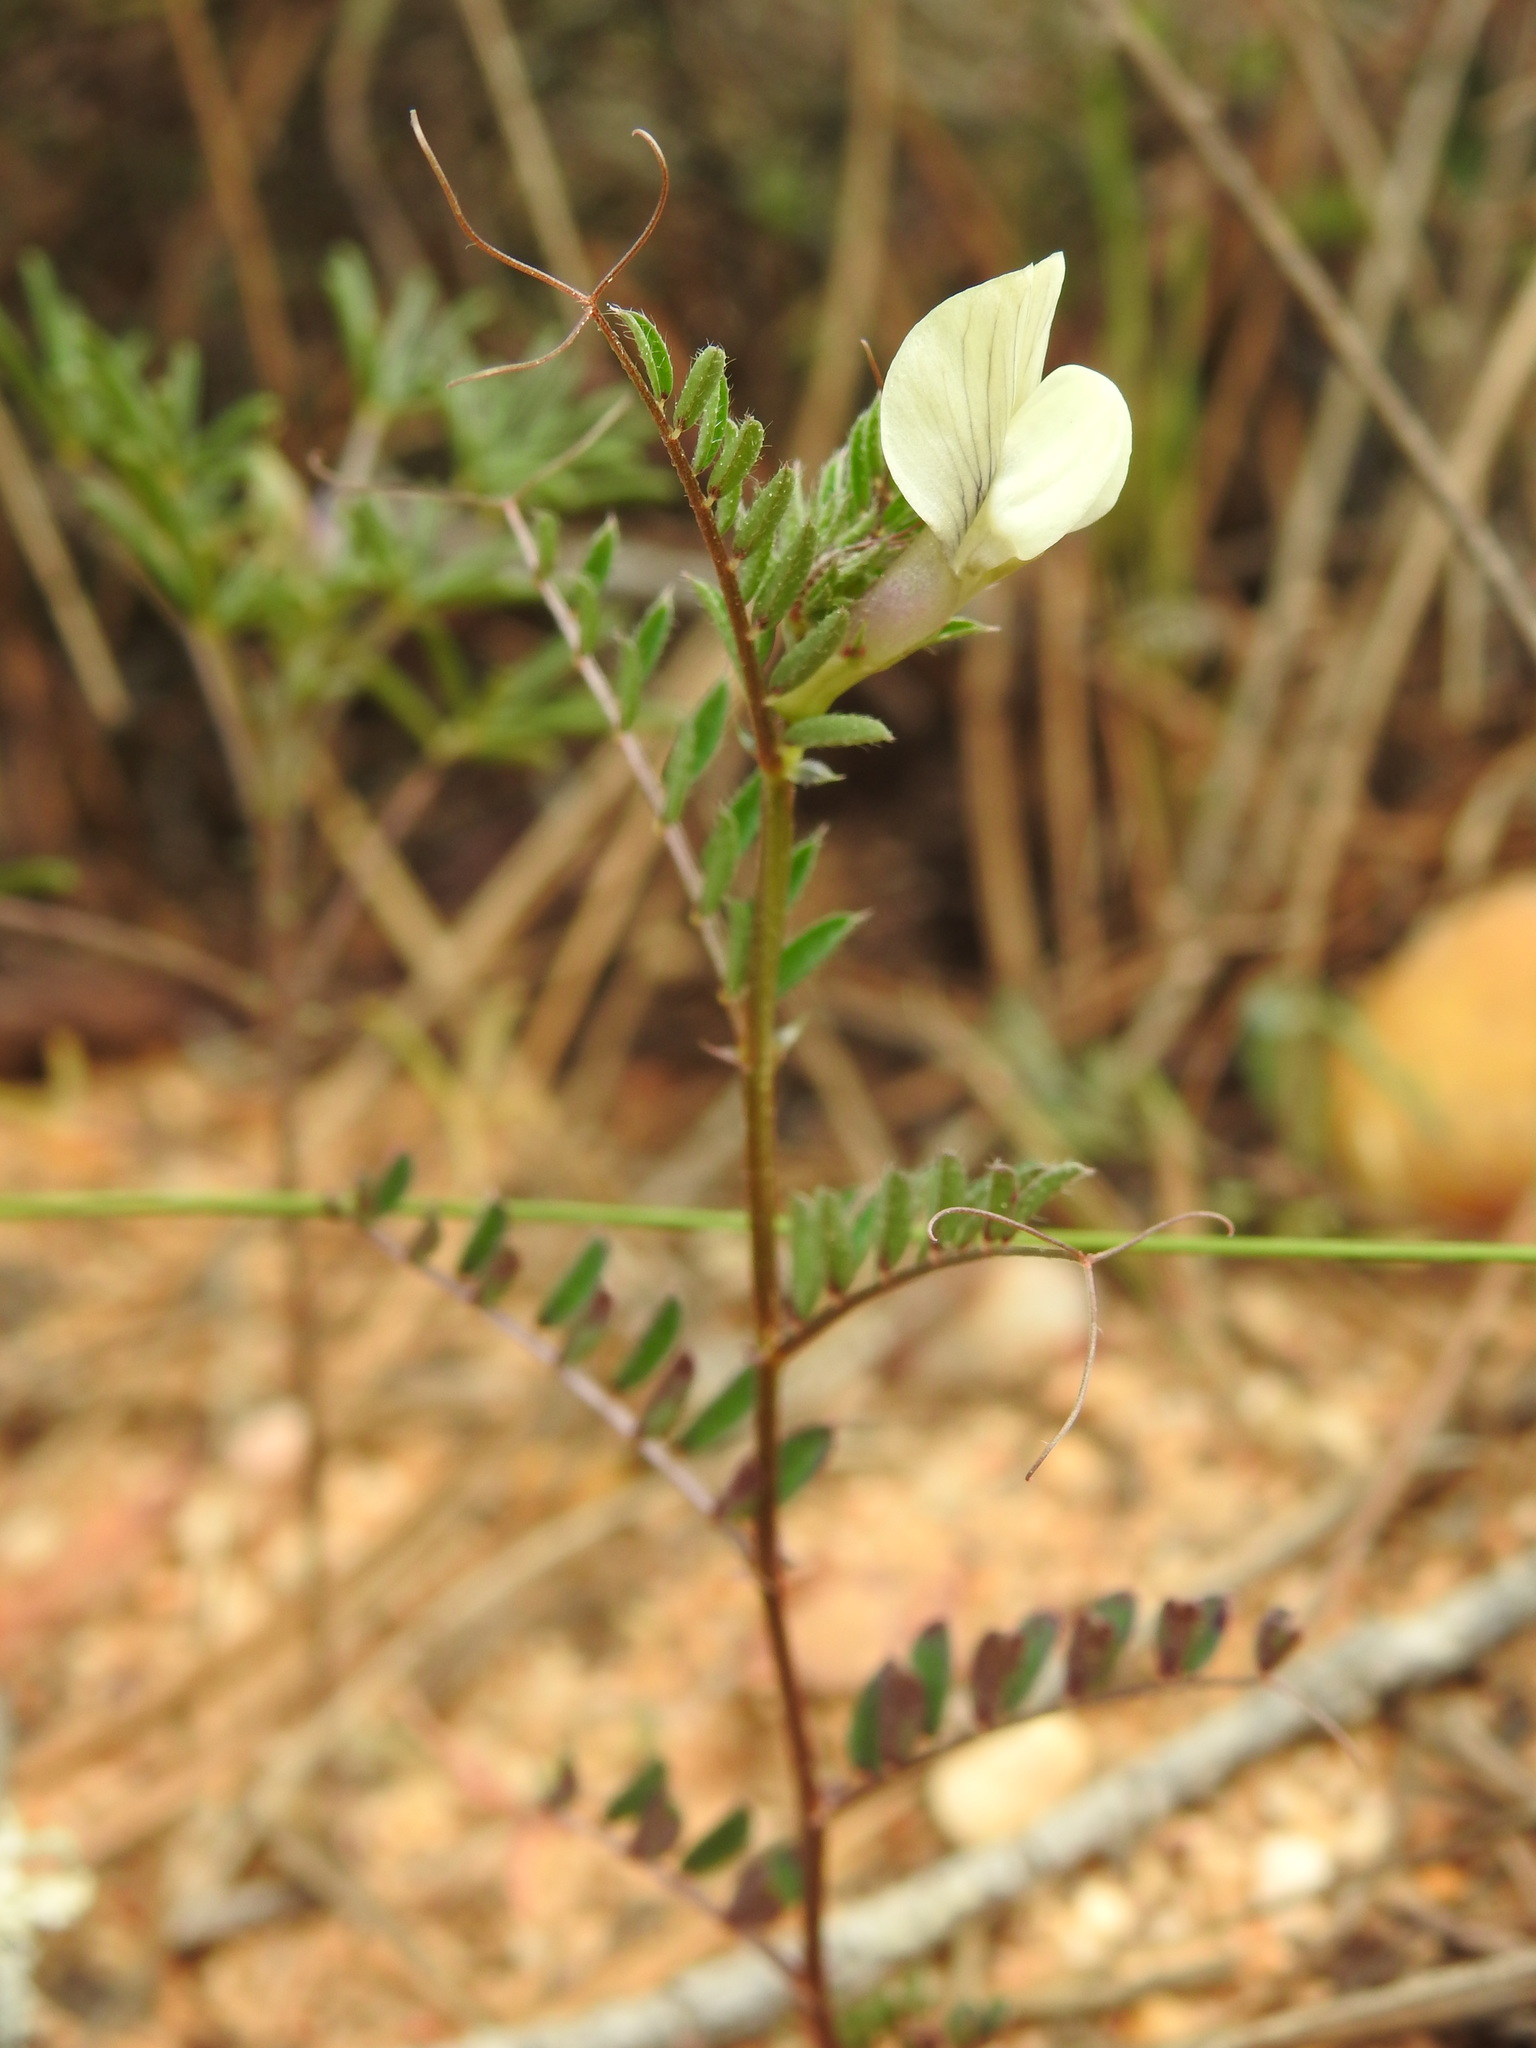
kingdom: Plantae
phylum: Tracheophyta
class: Magnoliopsida
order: Fabales
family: Fabaceae
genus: Vicia
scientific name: Vicia lutea
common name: Smooth yellow vetch
